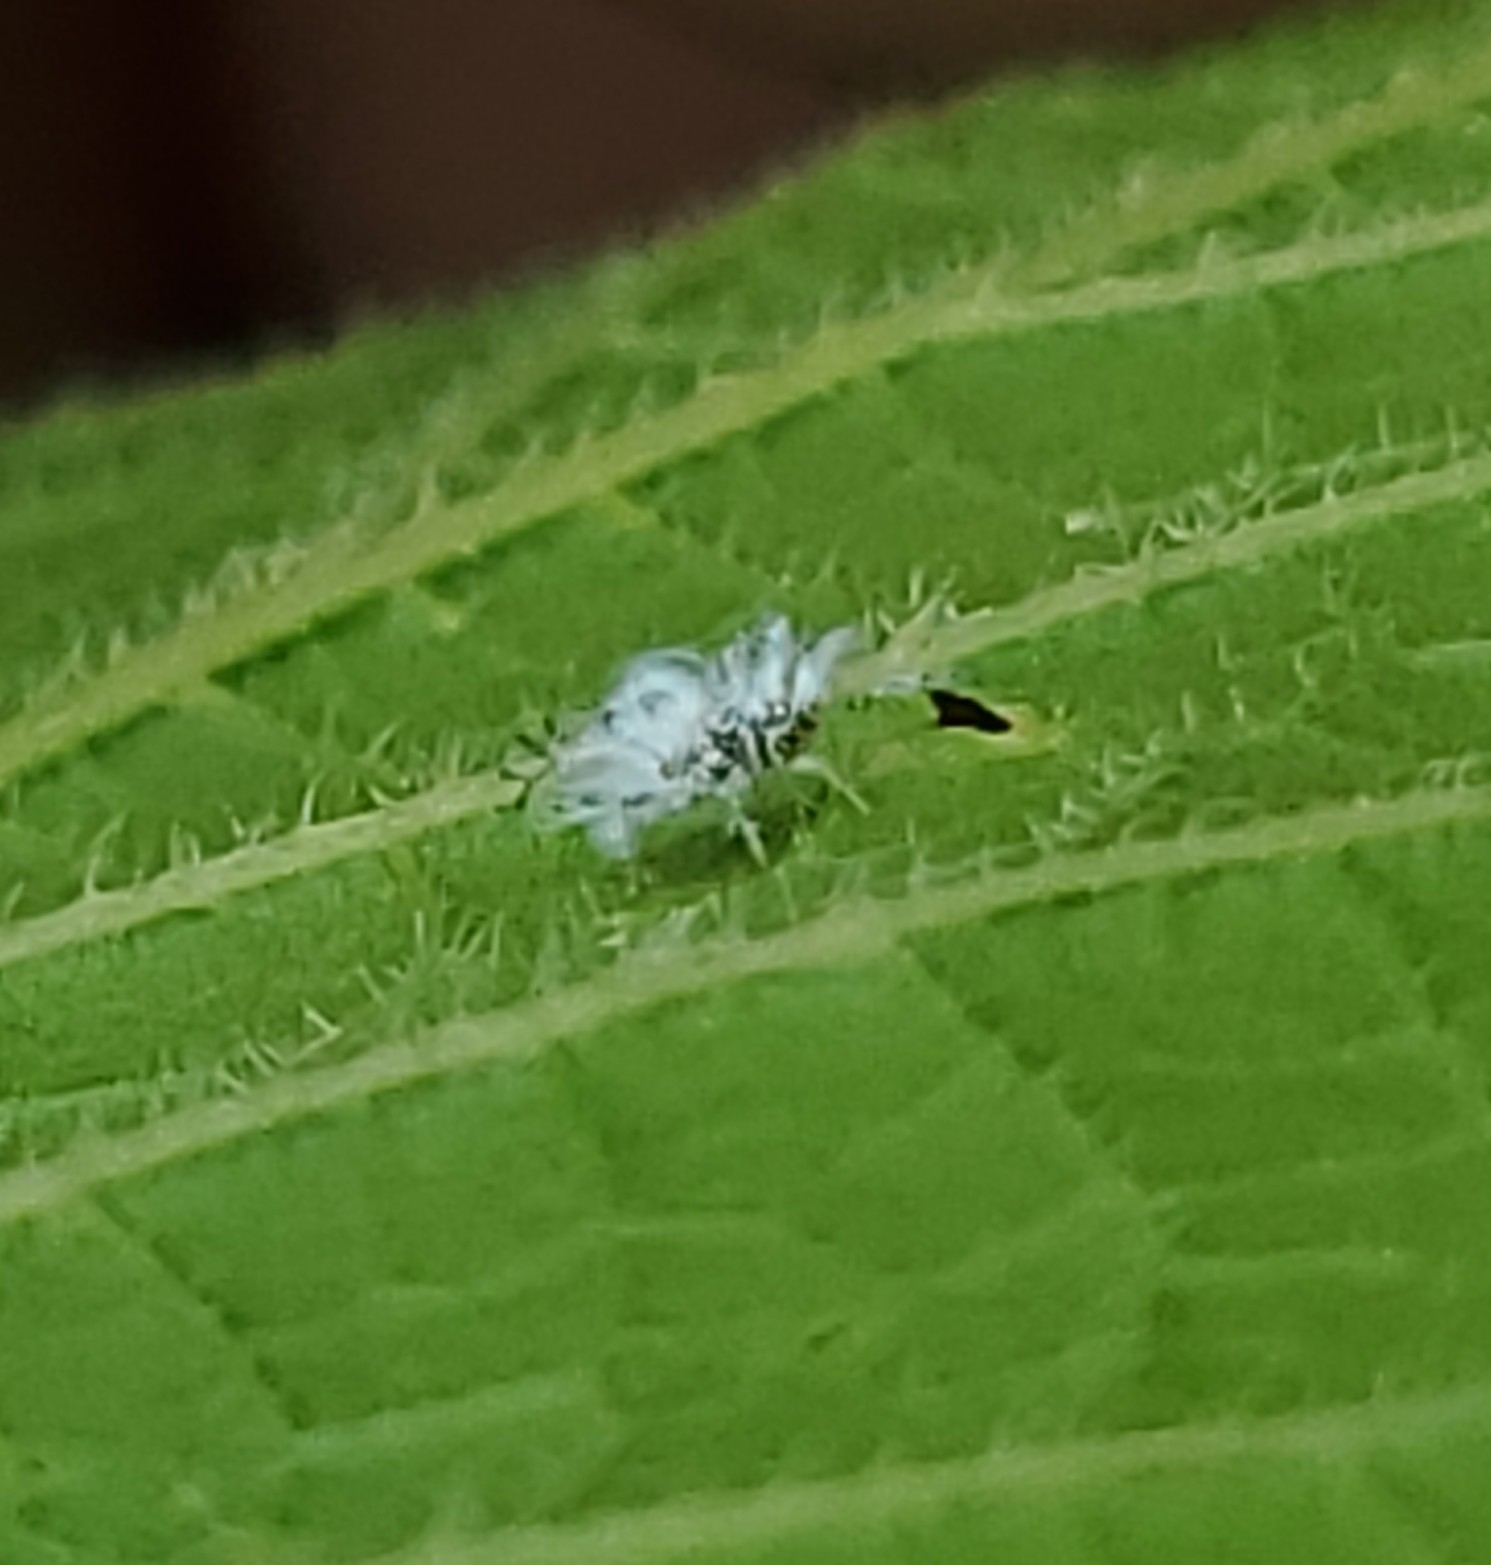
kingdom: Animalia
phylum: Arthropoda
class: Insecta
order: Hemiptera
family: Aphididae
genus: Shivaphis
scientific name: Shivaphis celti
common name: Asian wooly hackberry aphid
